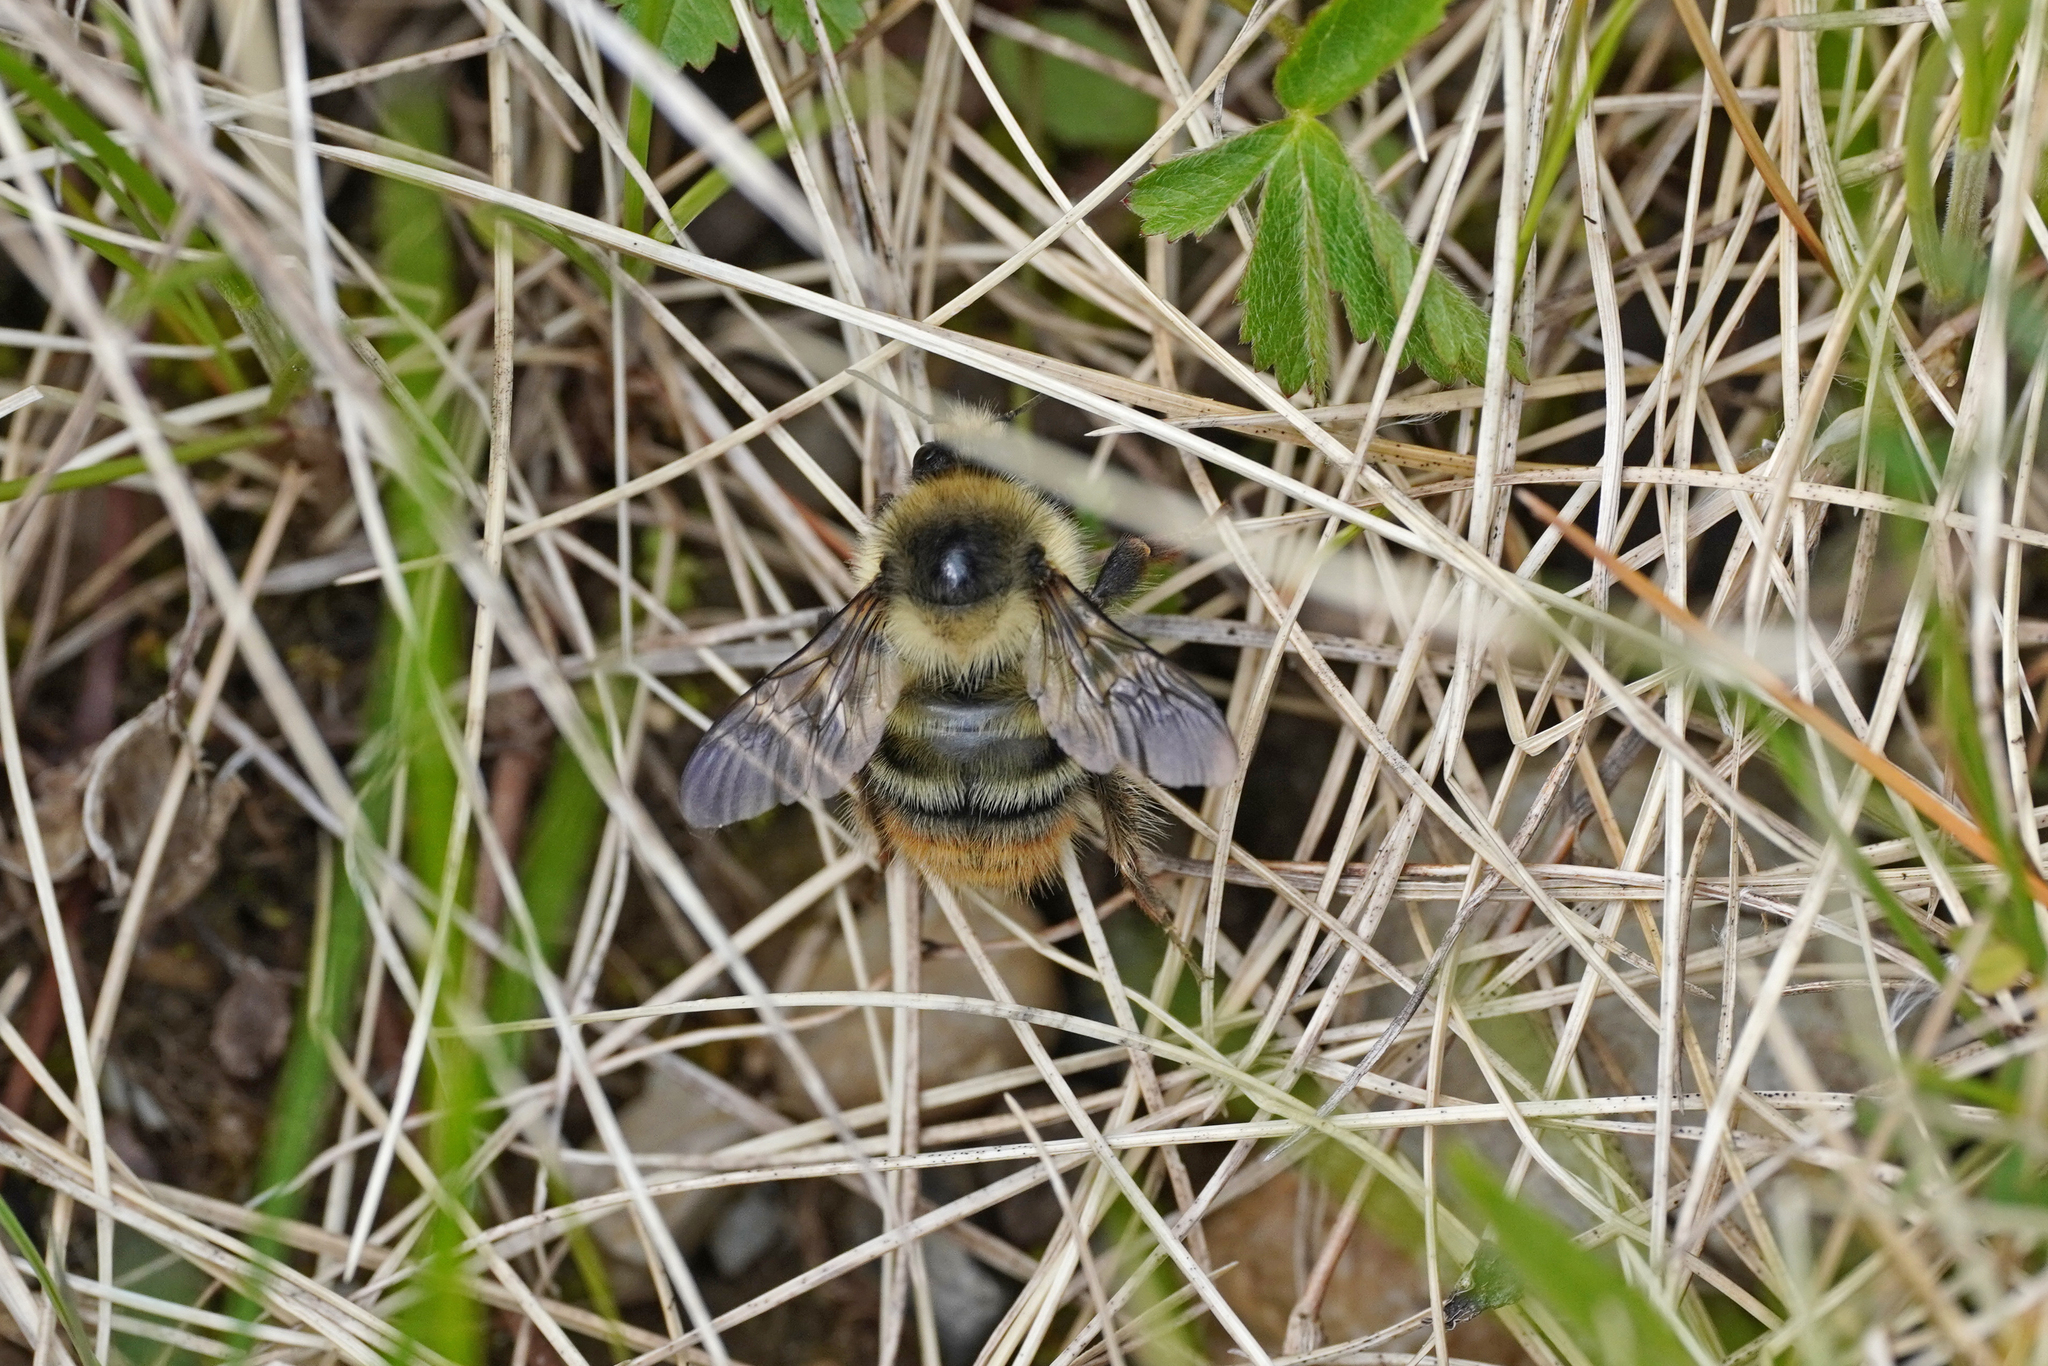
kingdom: Animalia
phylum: Arthropoda
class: Insecta
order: Hymenoptera
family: Apidae
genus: Bombus
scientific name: Bombus sylvarum
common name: Shrill carder bee
